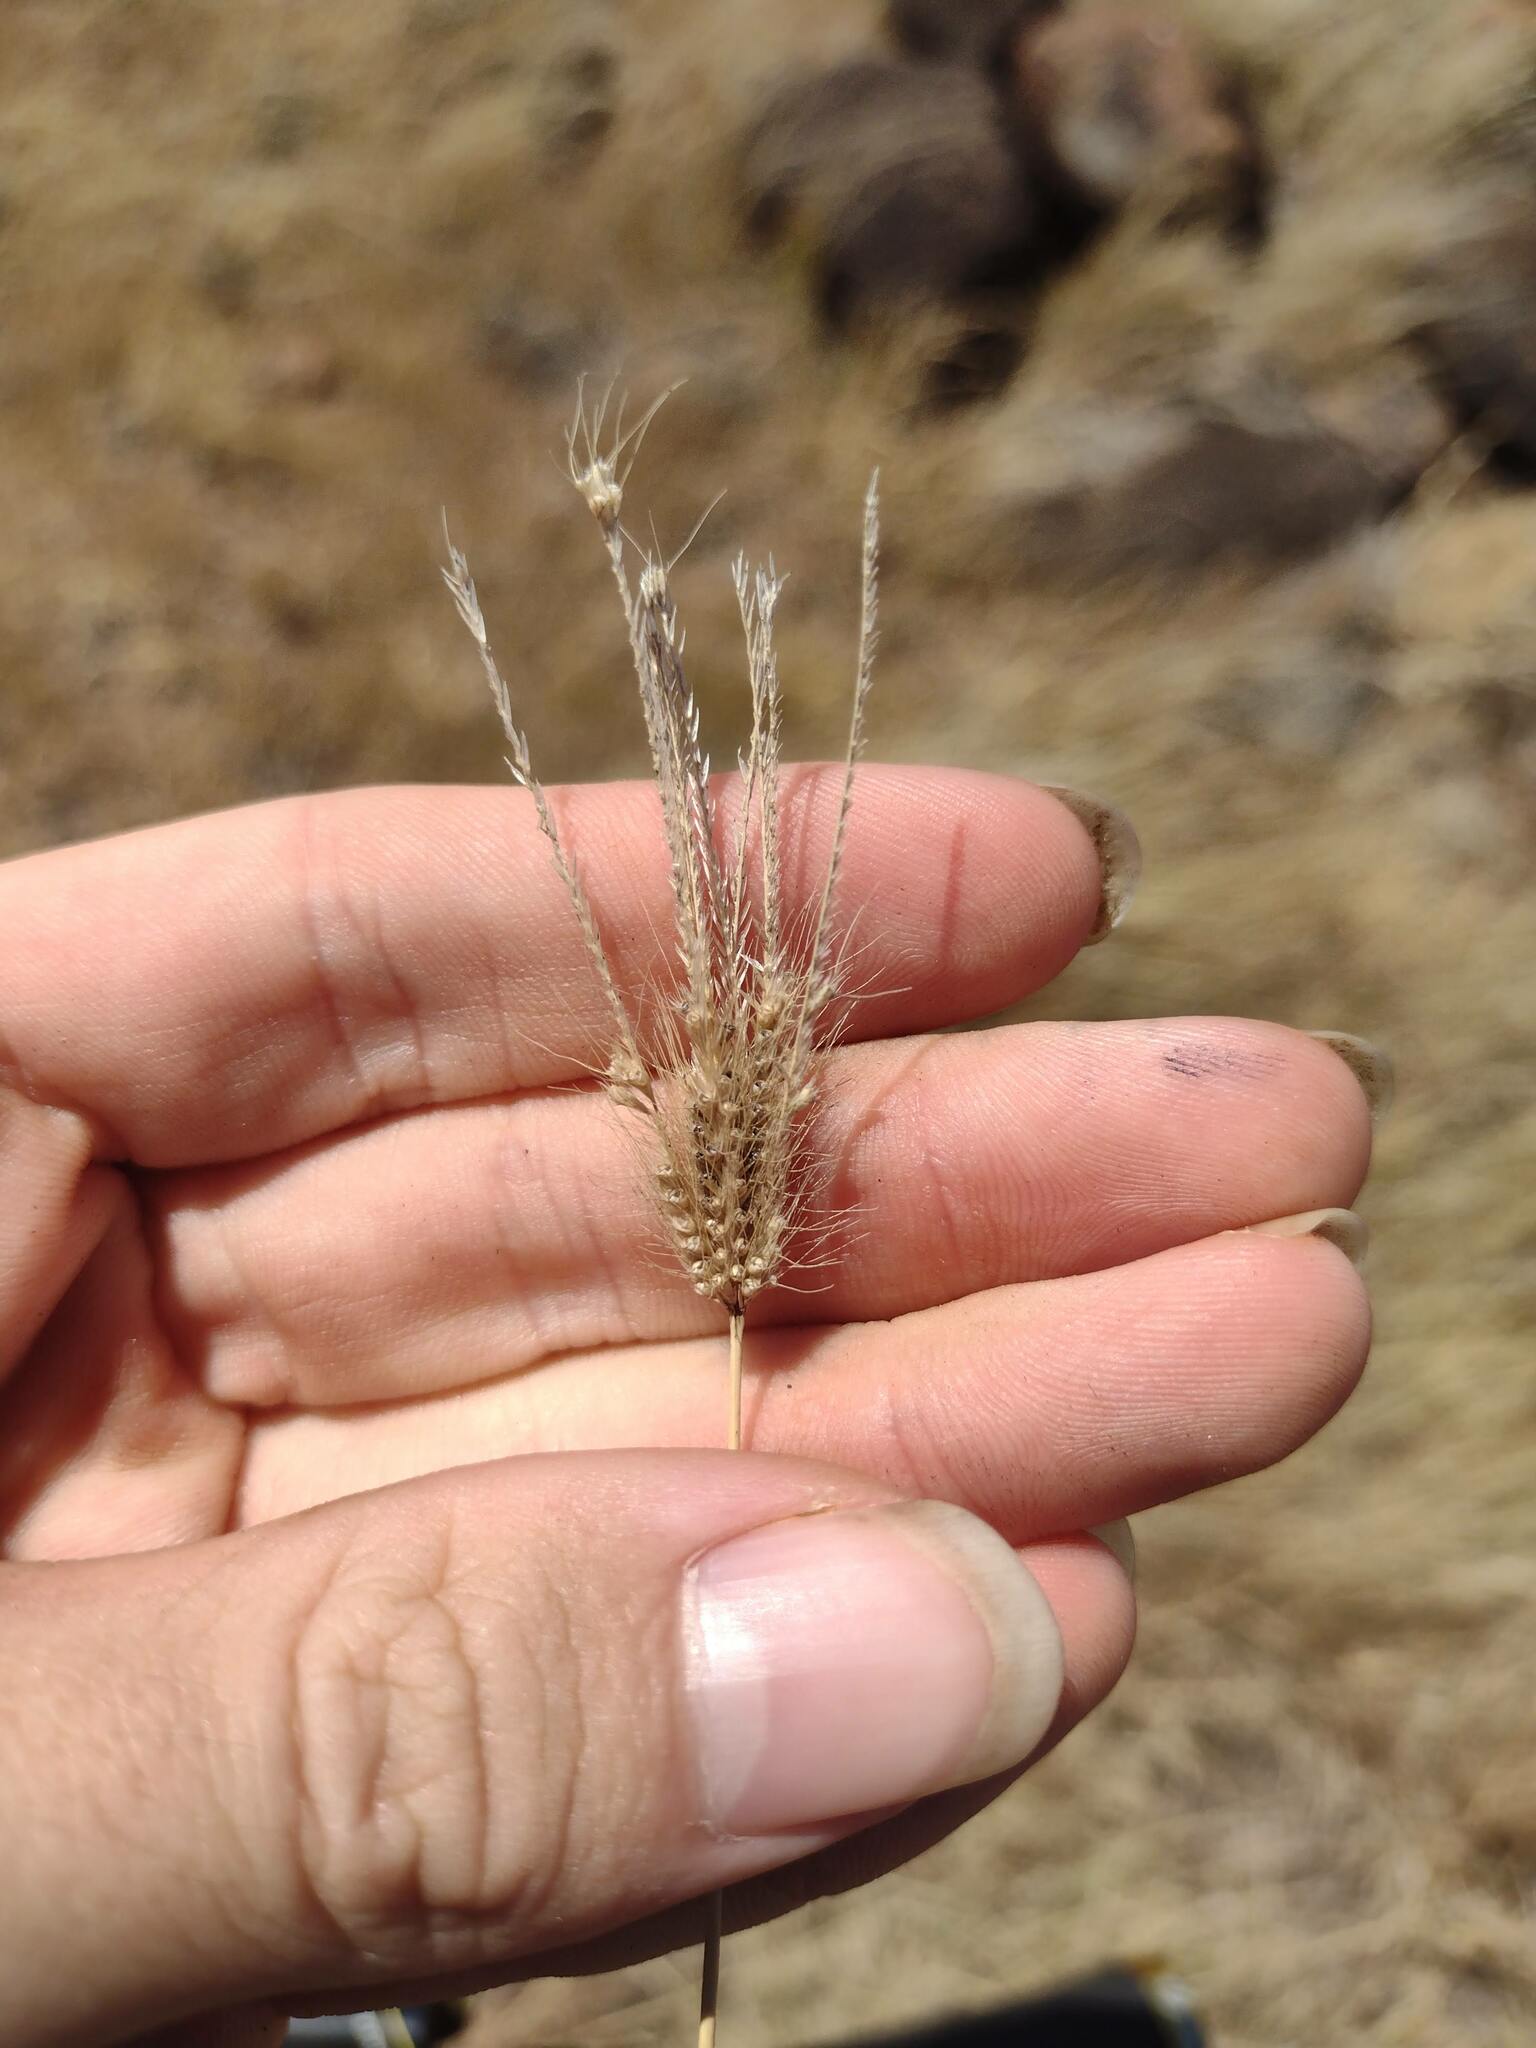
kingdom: Plantae
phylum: Tracheophyta
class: Liliopsida
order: Poales
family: Poaceae
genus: Chloris
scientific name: Chloris barbata
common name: Swollen fingergrass
